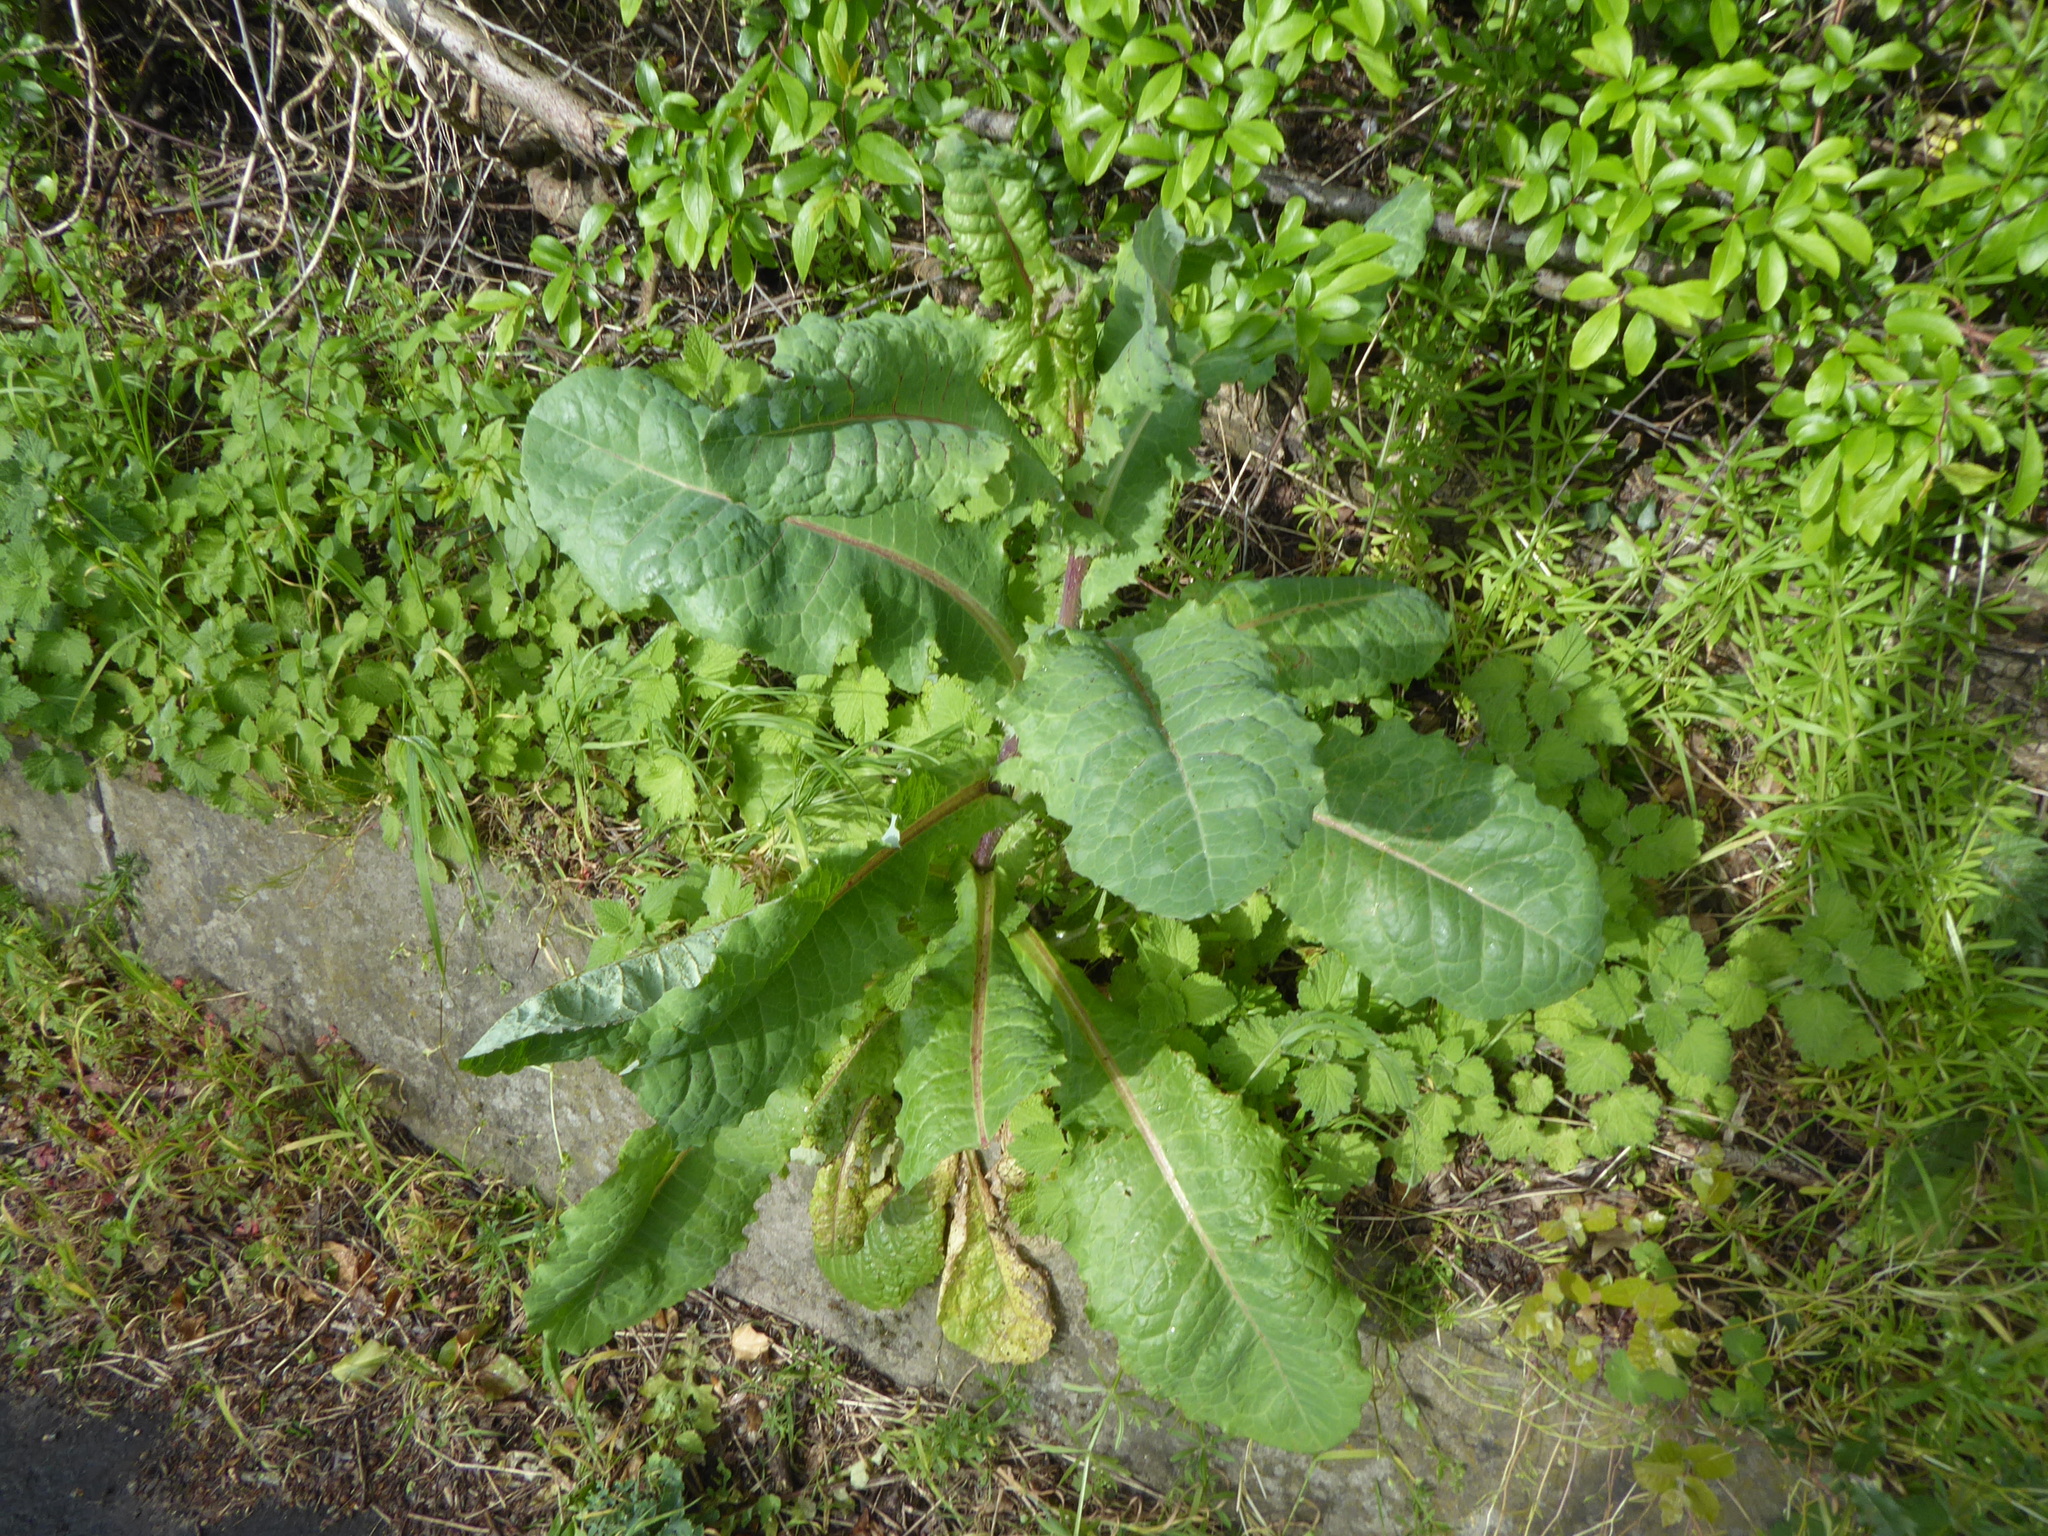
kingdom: Plantae
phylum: Tracheophyta
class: Magnoliopsida
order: Asterales
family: Asteraceae
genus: Lactuca
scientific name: Lactuca virosa
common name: Great lettuce
